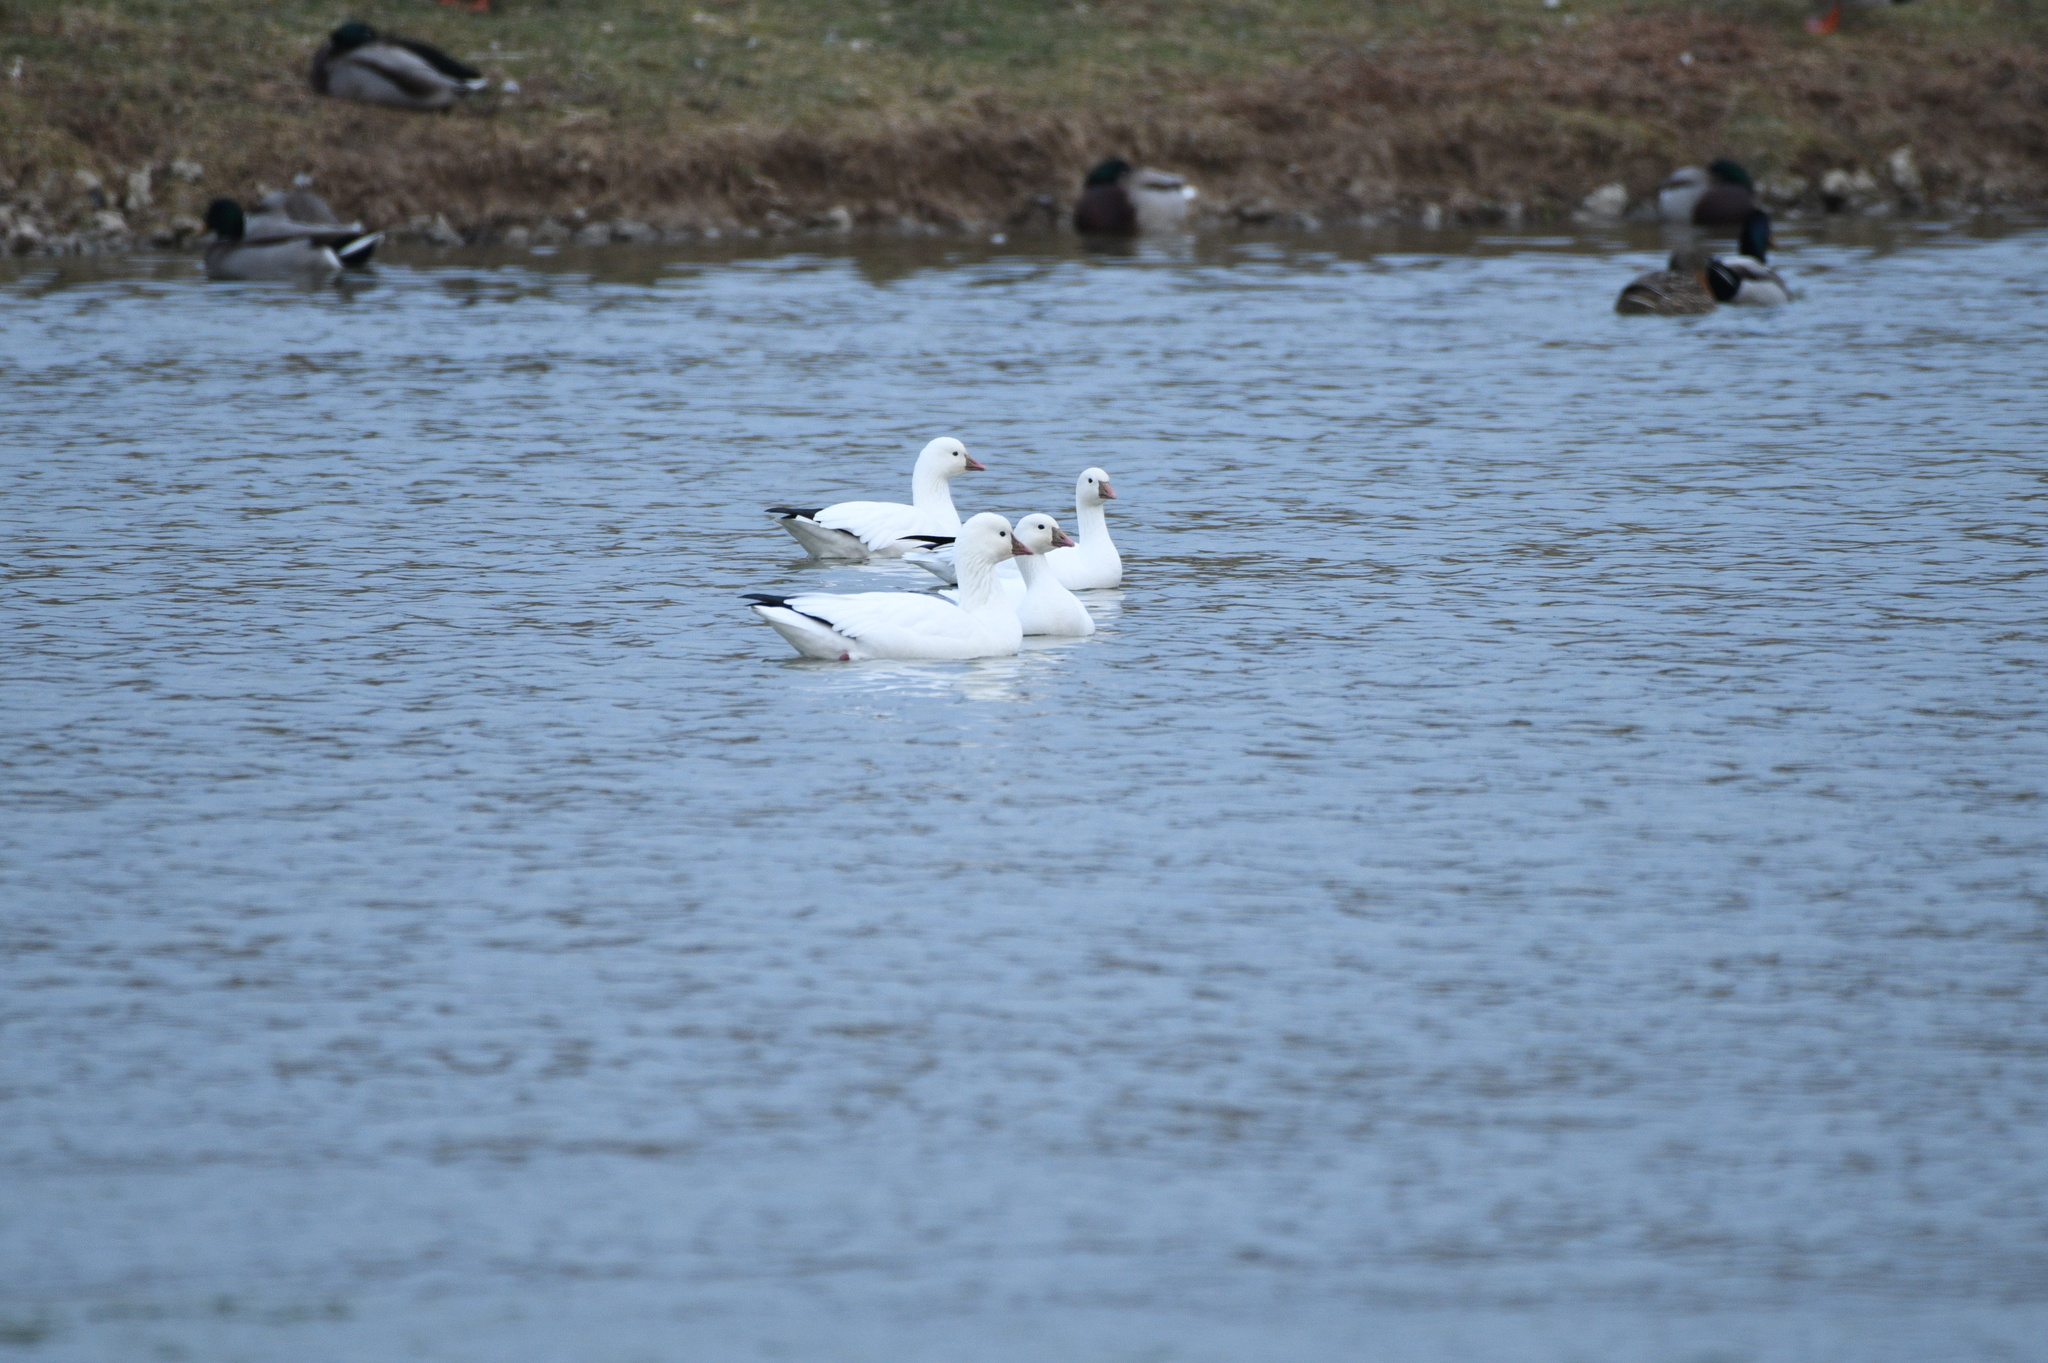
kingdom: Animalia
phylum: Chordata
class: Aves
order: Anseriformes
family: Anatidae
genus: Anser
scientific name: Anser rossii
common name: Ross's goose
